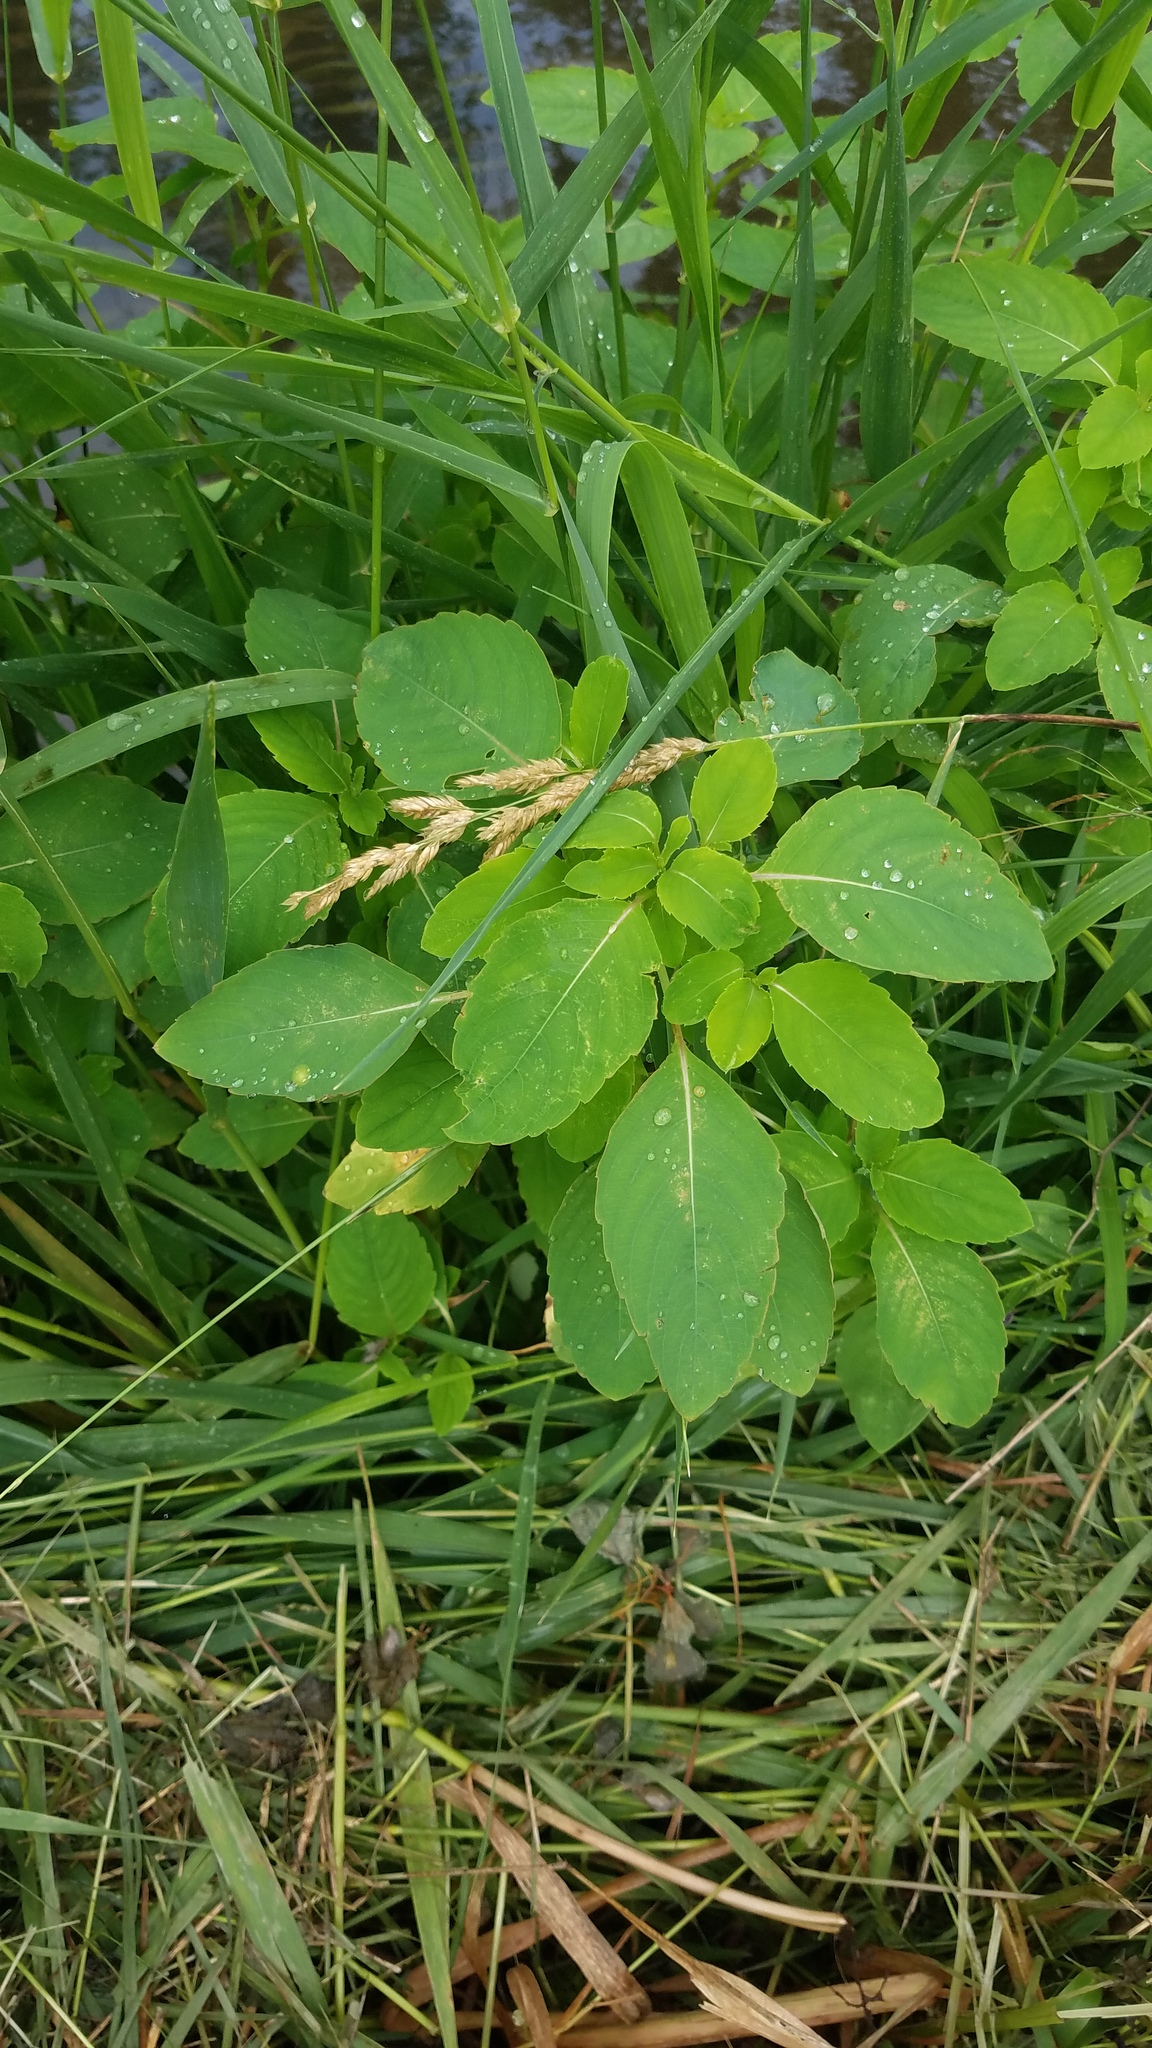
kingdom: Plantae
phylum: Tracheophyta
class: Magnoliopsida
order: Ericales
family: Balsaminaceae
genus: Impatiens
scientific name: Impatiens capensis
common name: Orange balsam
